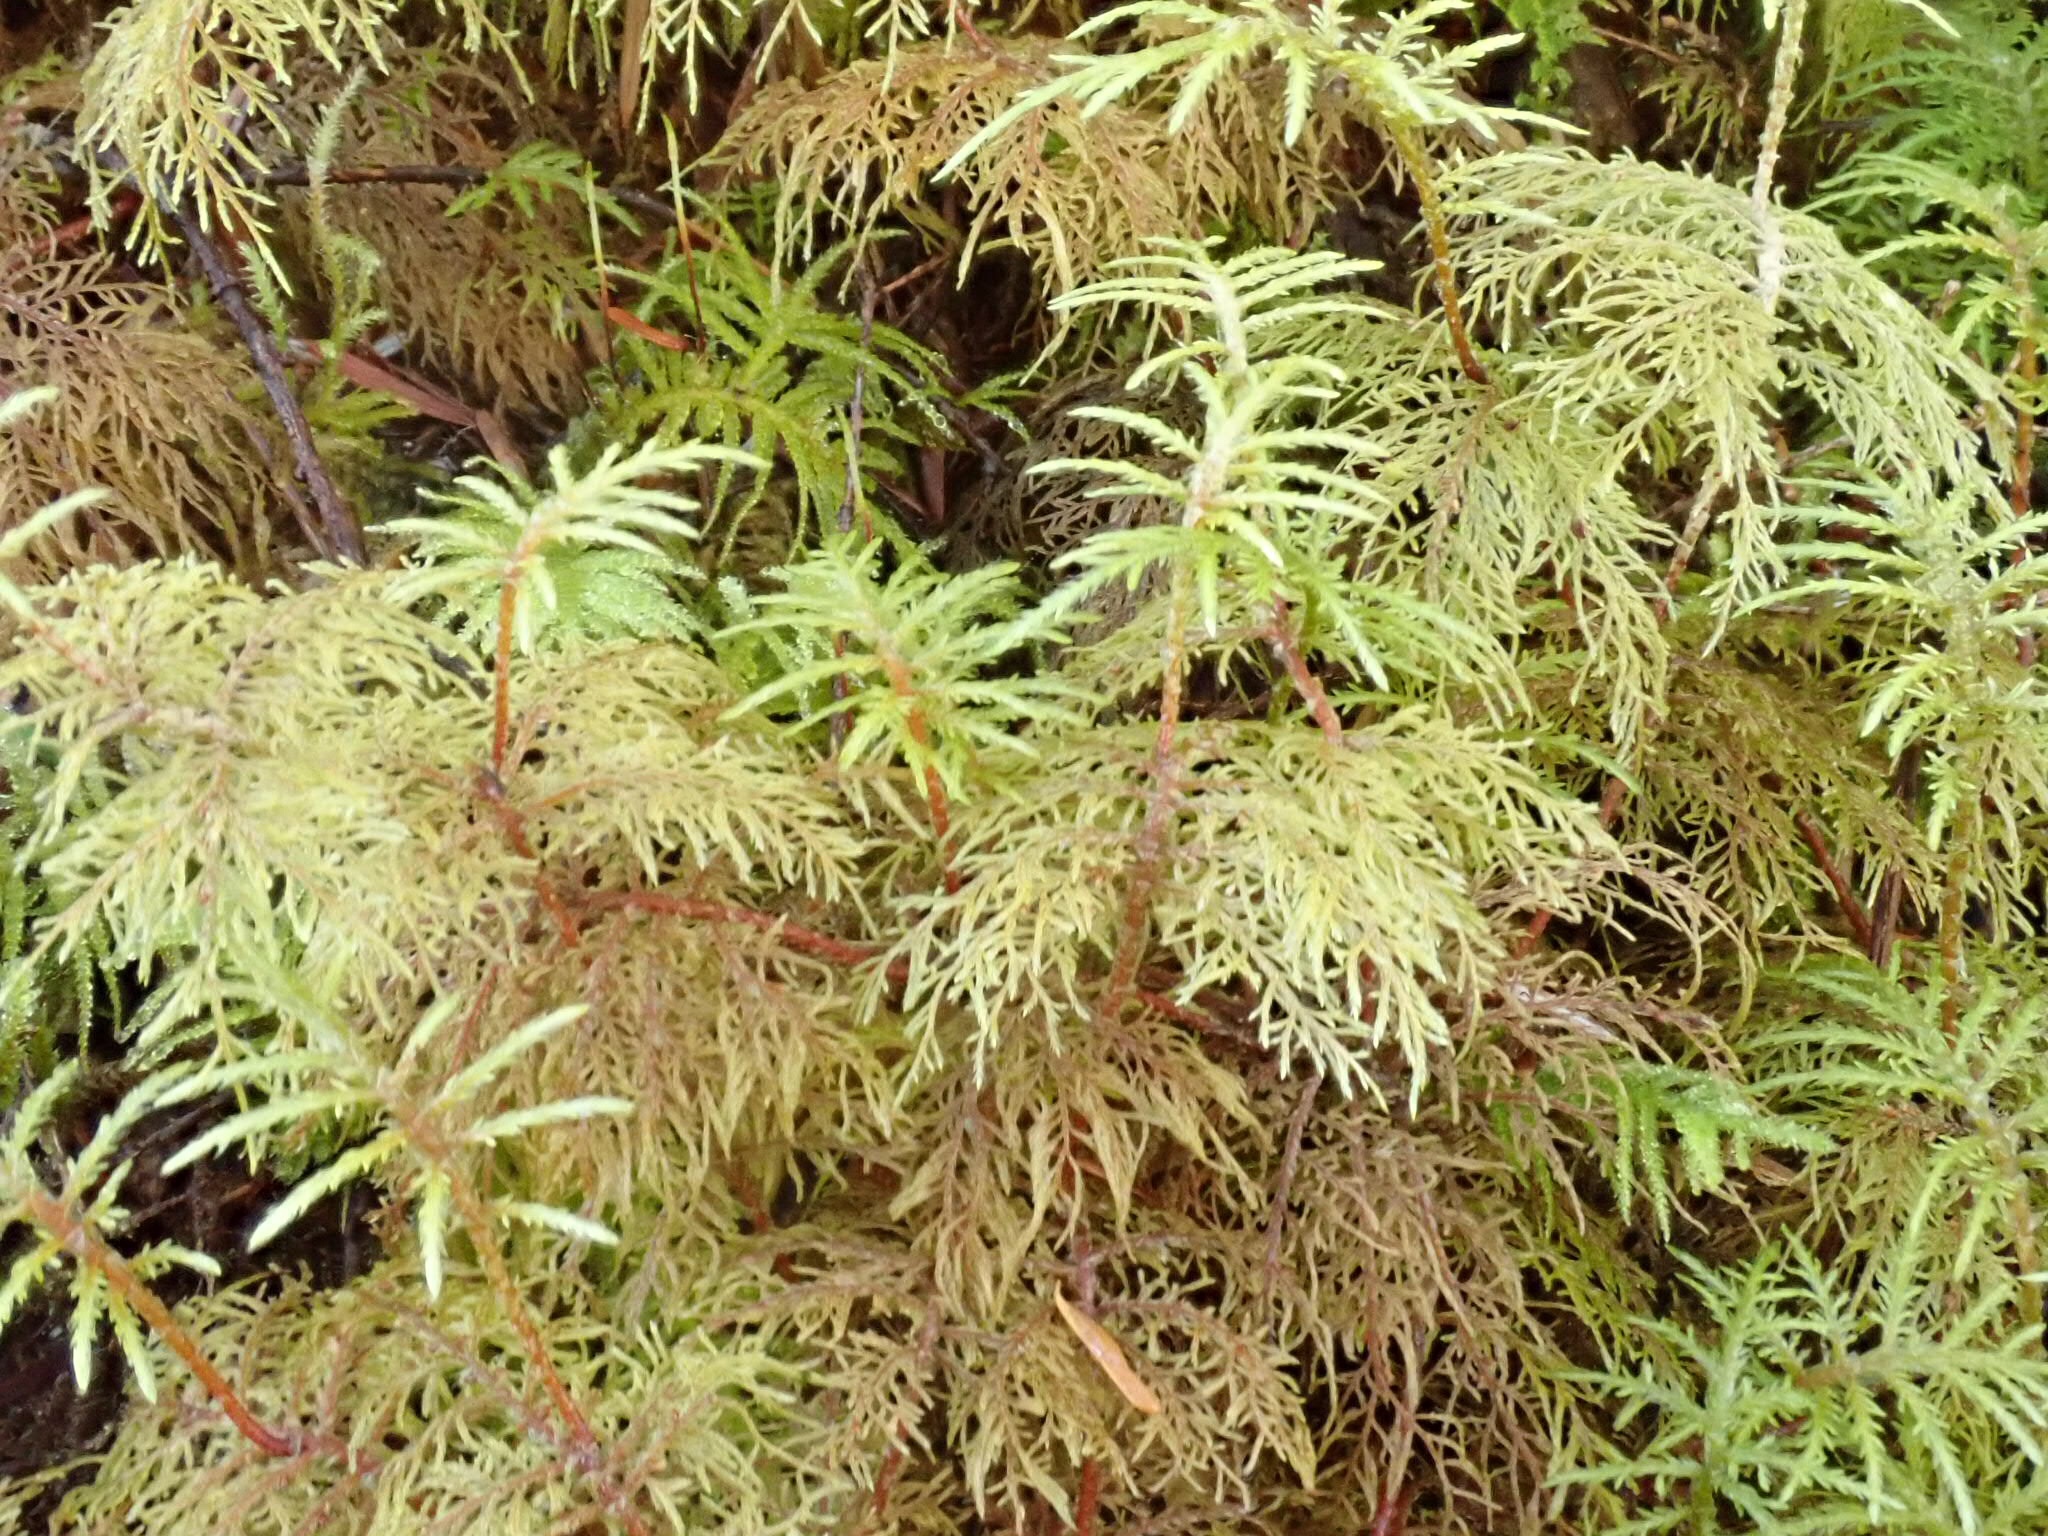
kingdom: Plantae
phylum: Bryophyta
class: Bryopsida
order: Hypnales
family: Hylocomiaceae
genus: Hylocomium
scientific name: Hylocomium splendens
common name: Stairstep moss
